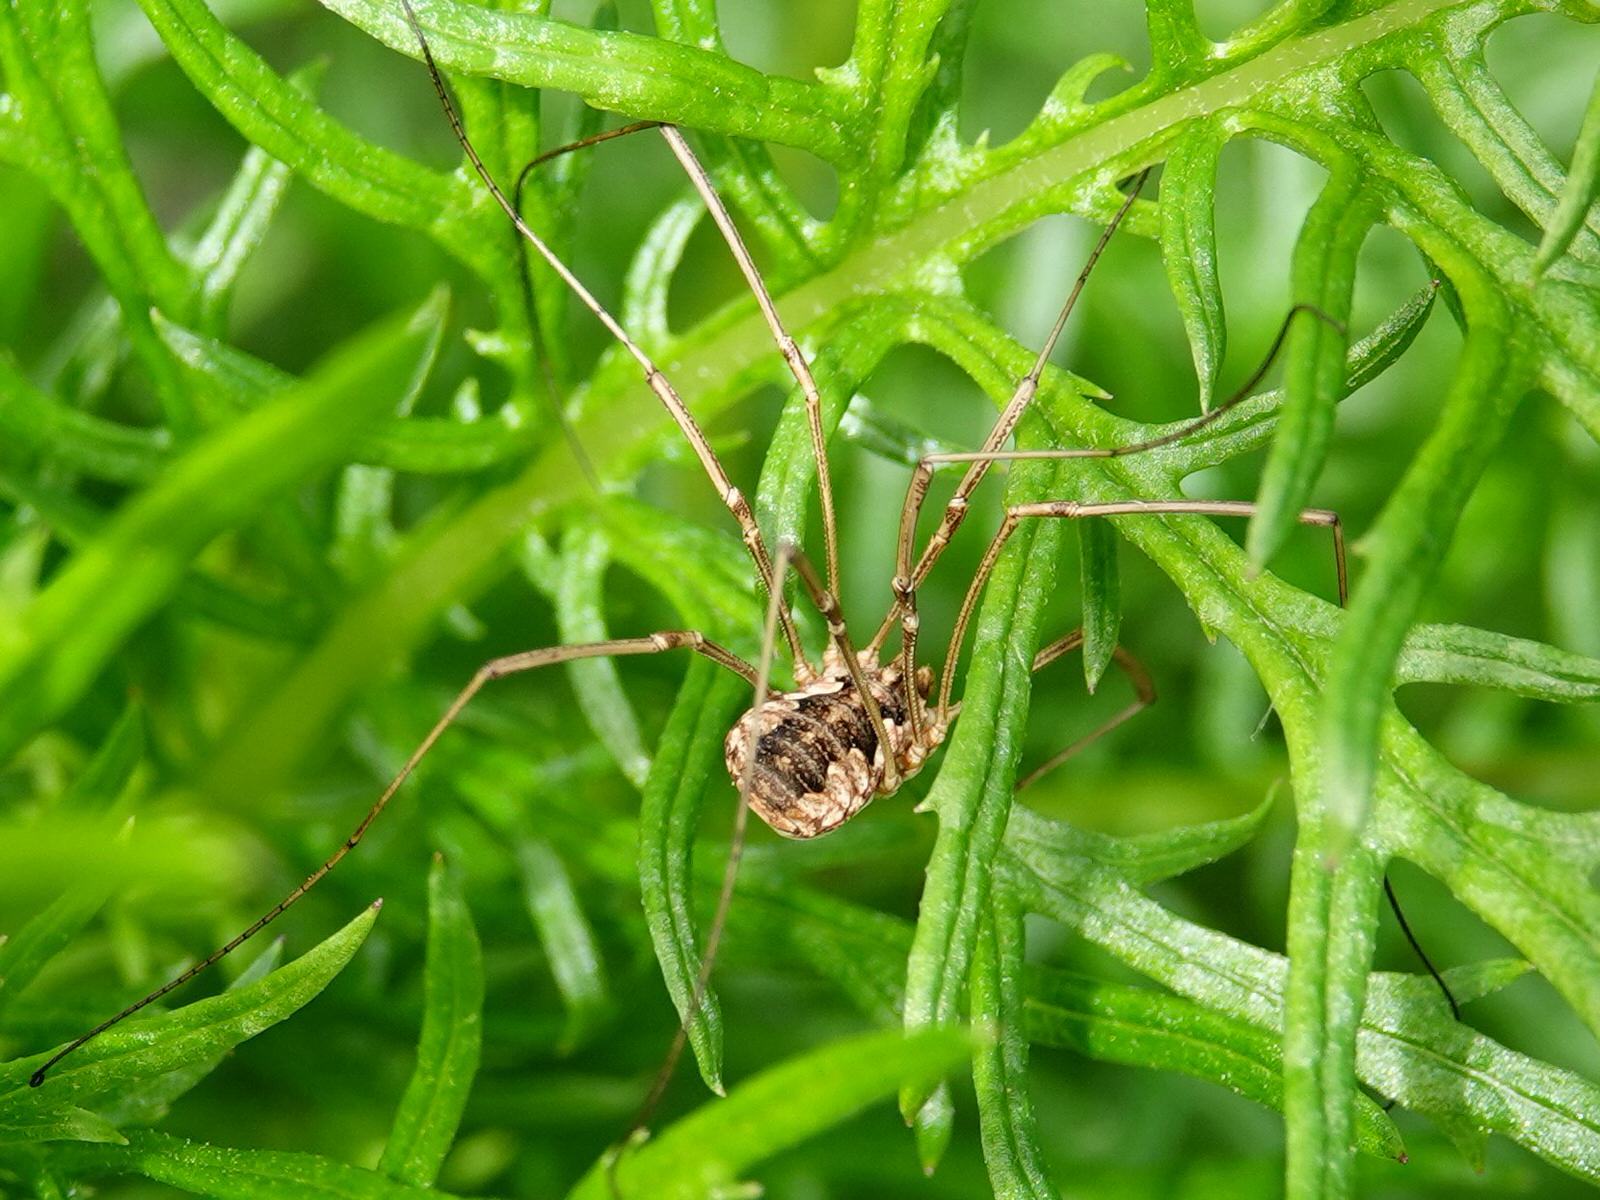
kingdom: Animalia
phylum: Arthropoda
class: Arachnida
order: Opiliones
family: Phalangiidae
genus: Phalangium
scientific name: Phalangium opilio
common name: Daddy longleg
